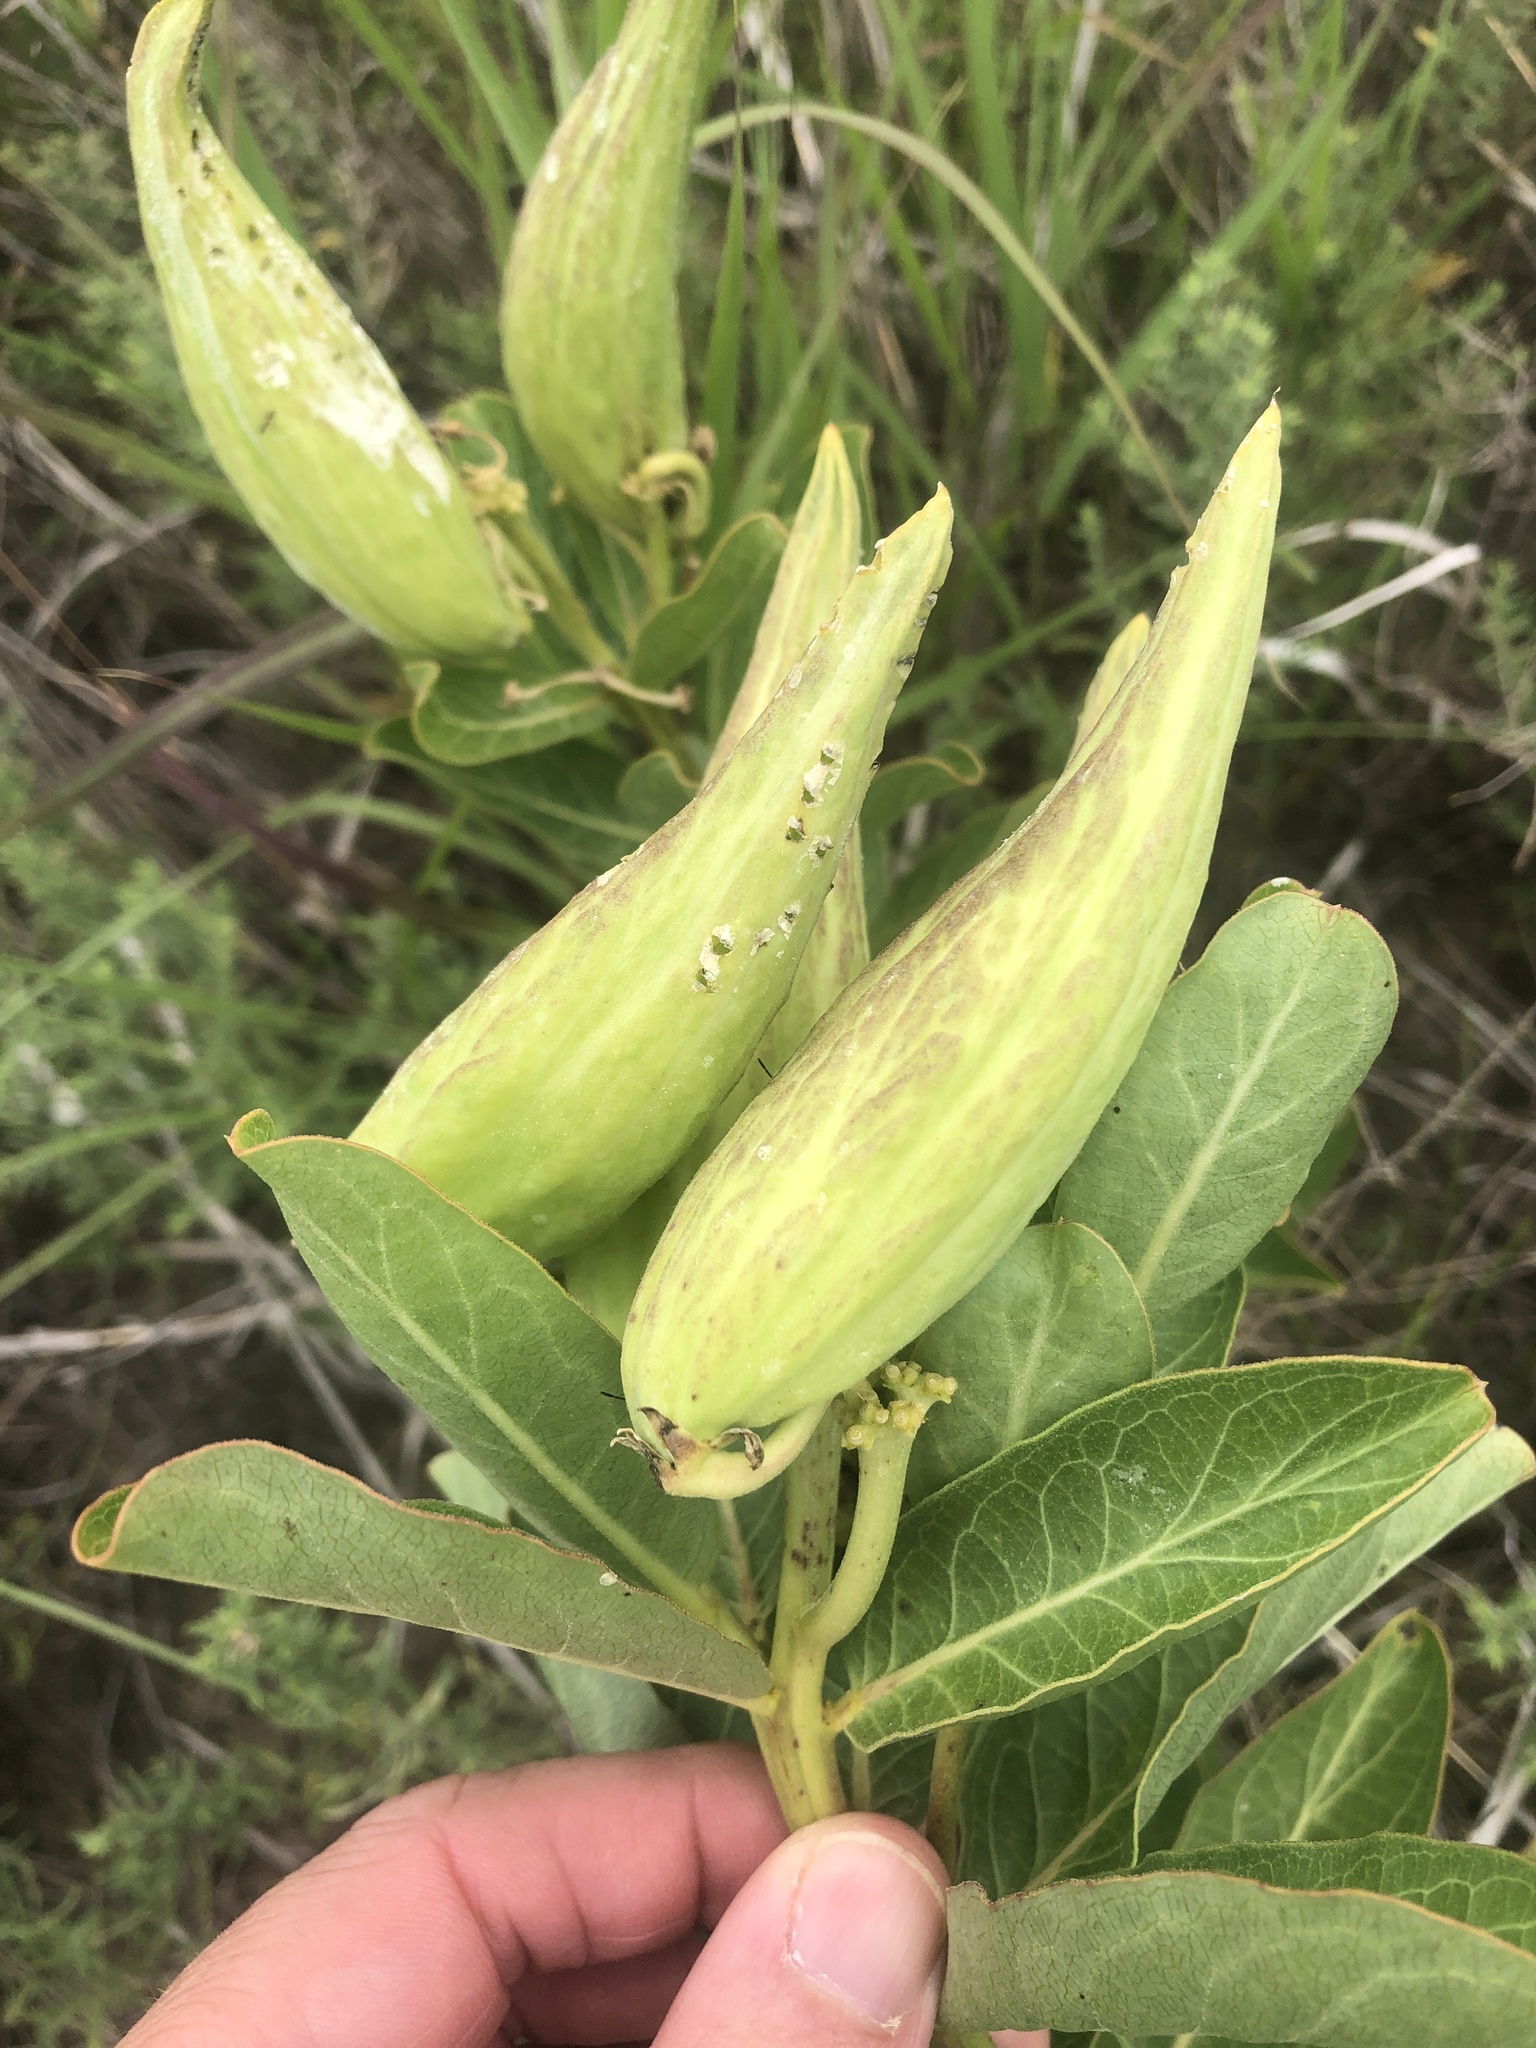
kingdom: Plantae
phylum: Tracheophyta
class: Magnoliopsida
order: Gentianales
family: Apocynaceae
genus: Asclepias
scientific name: Asclepias viridis
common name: Antelope-horns
